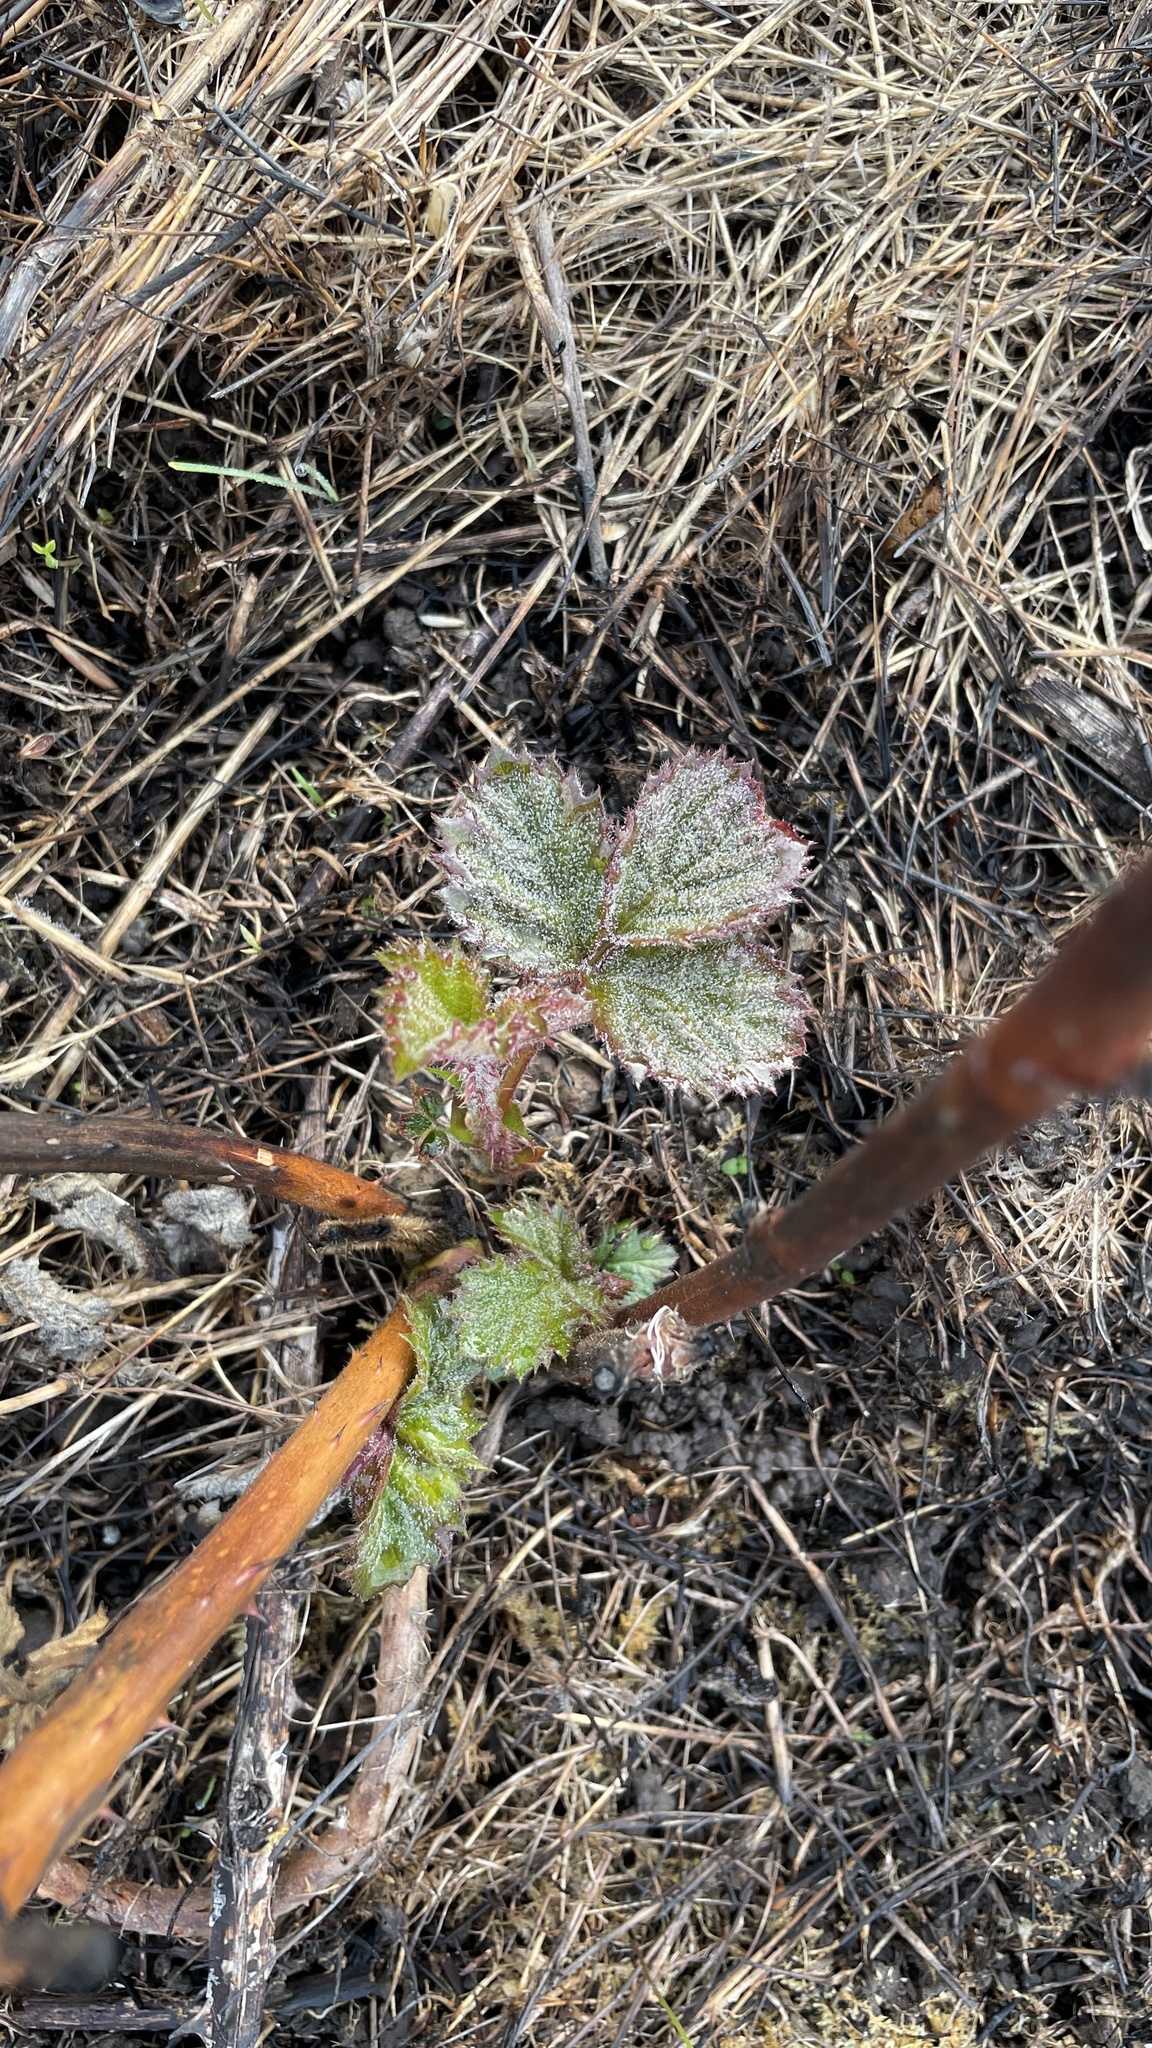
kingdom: Plantae
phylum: Tracheophyta
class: Magnoliopsida
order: Rosales
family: Rosaceae
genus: Rubus
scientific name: Rubus bifrons
